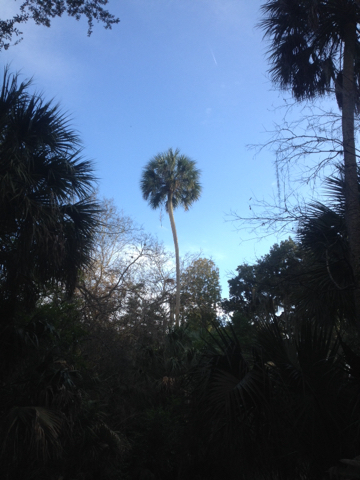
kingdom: Plantae
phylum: Tracheophyta
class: Liliopsida
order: Arecales
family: Arecaceae
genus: Sabal
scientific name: Sabal palmetto
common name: Blue palmetto
